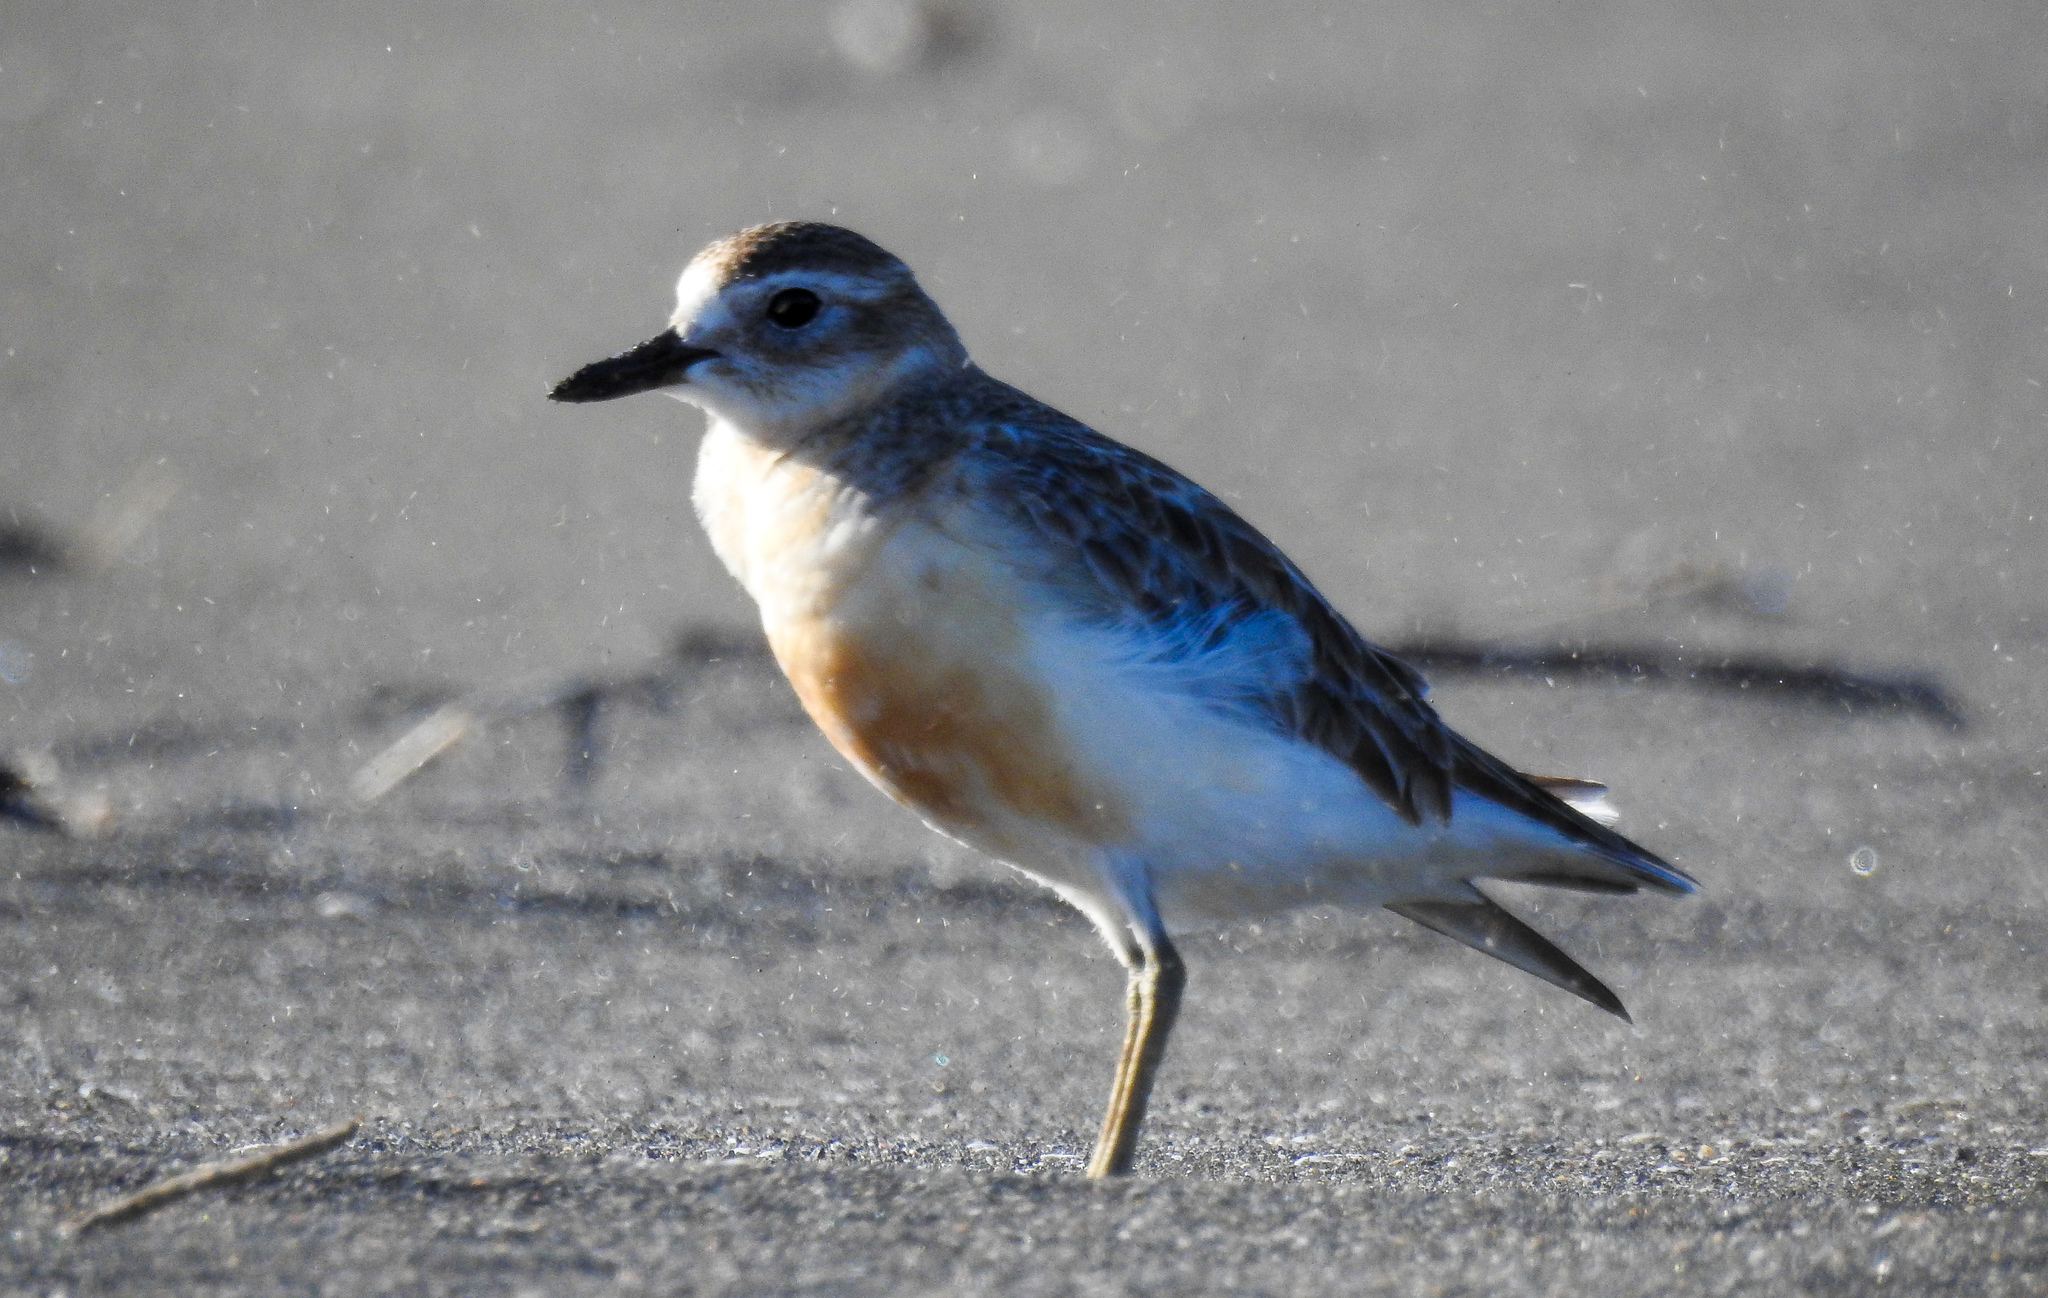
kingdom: Animalia
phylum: Chordata
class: Aves
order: Charadriiformes
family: Charadriidae
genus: Anarhynchus
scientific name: Anarhynchus
